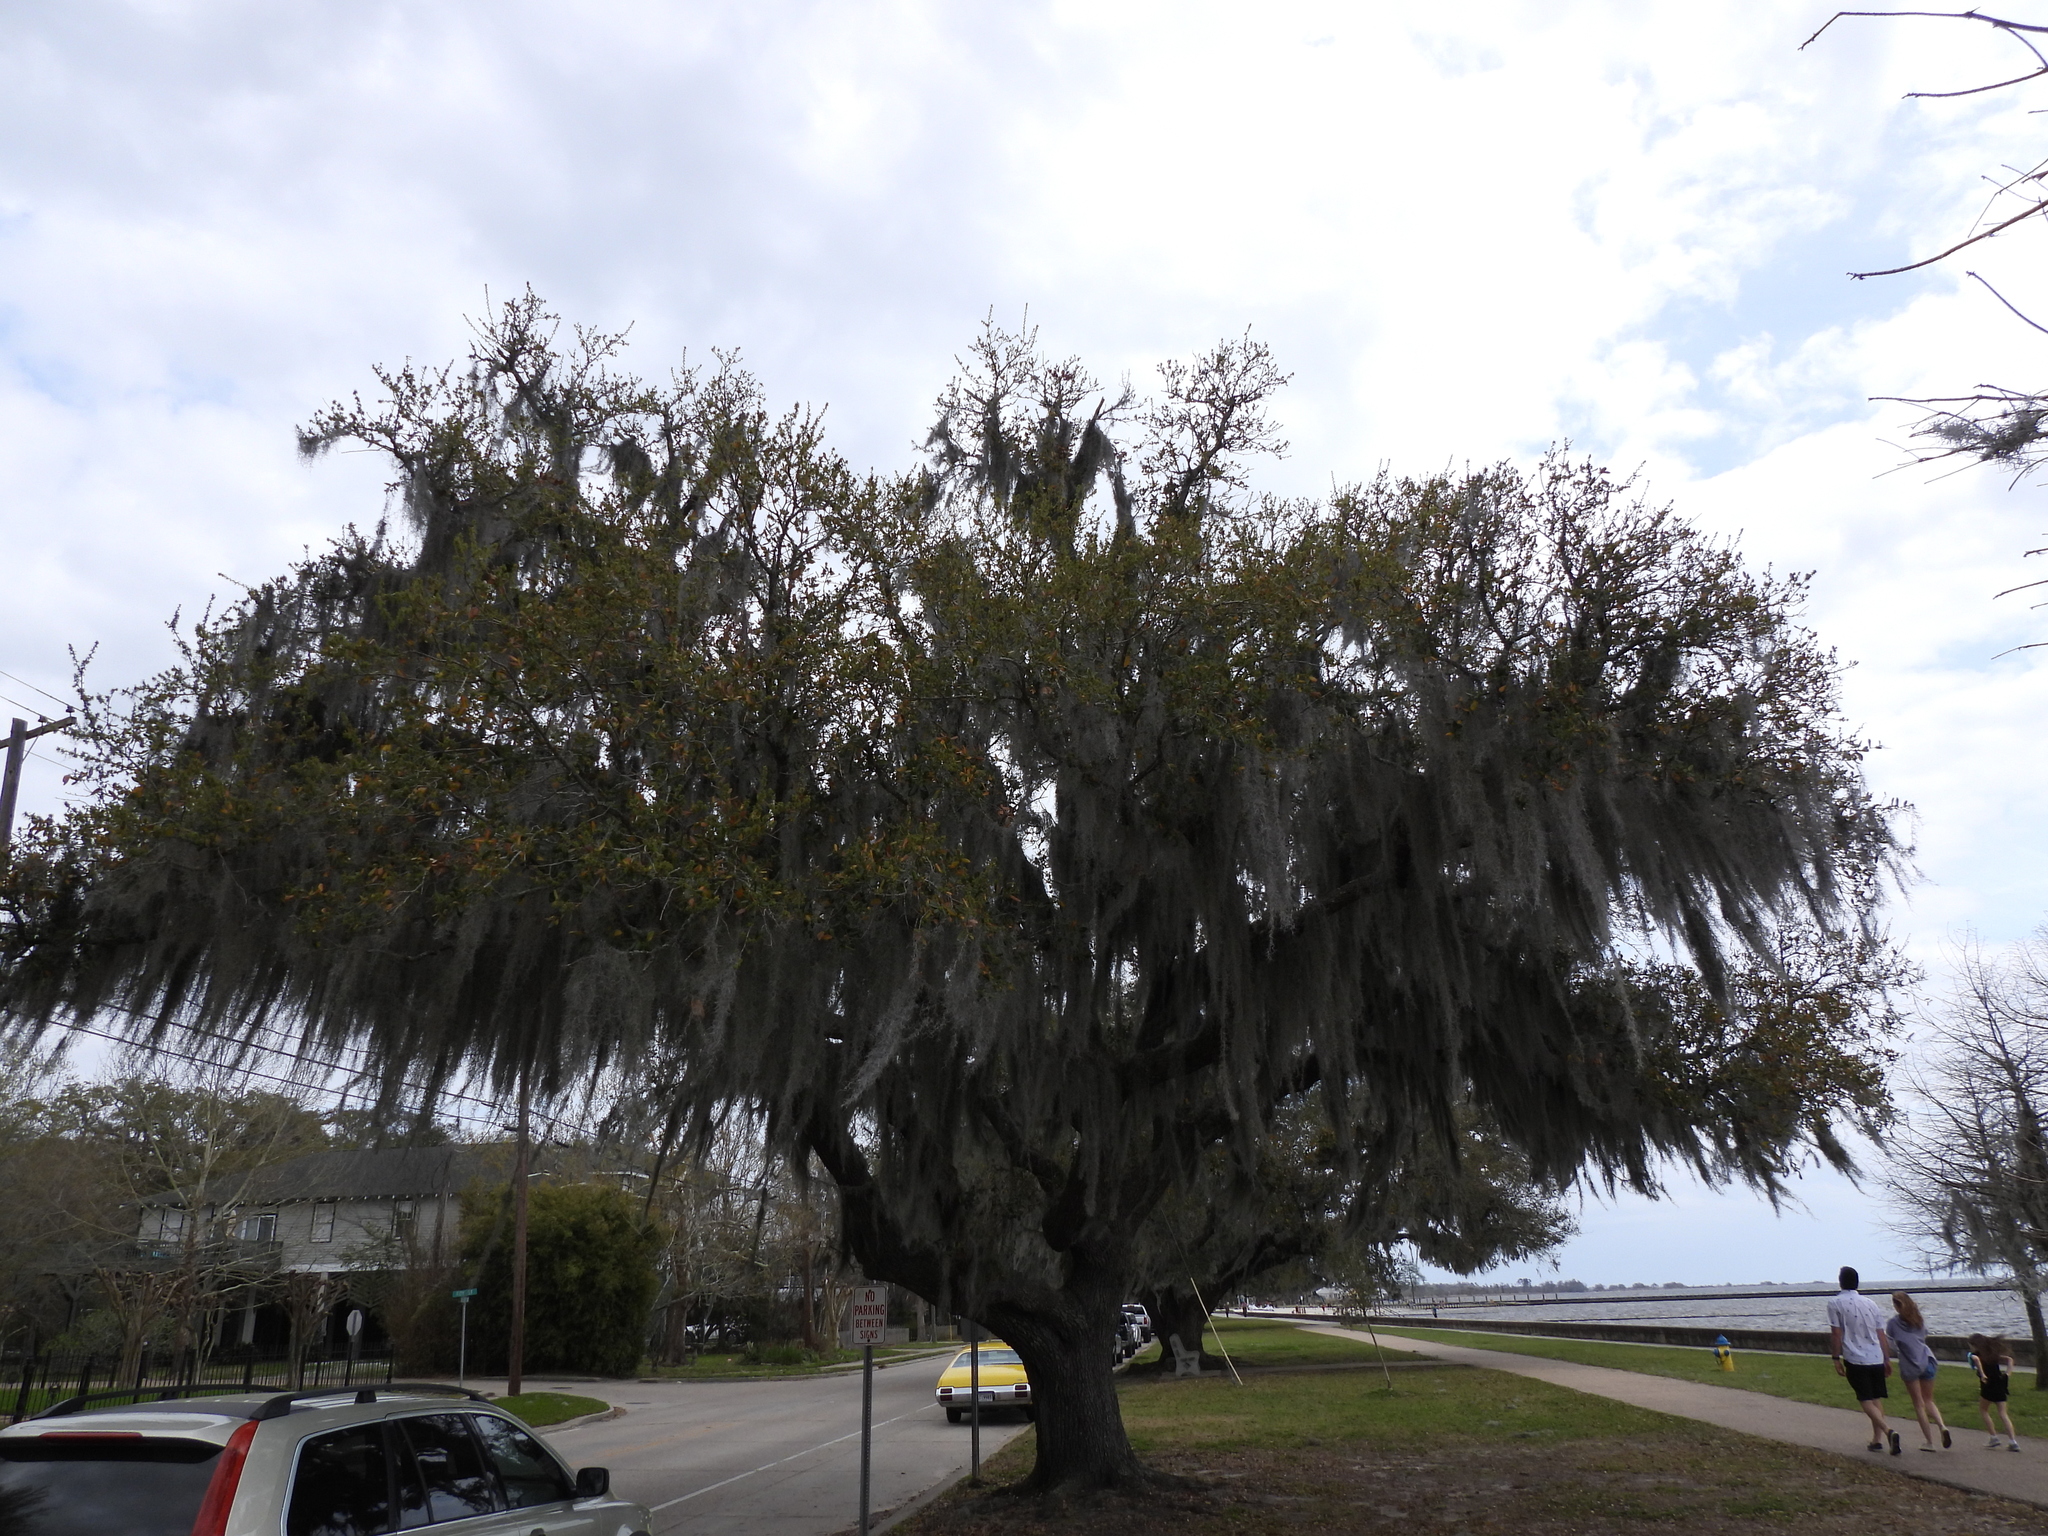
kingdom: Plantae
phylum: Tracheophyta
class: Liliopsida
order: Poales
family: Bromeliaceae
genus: Tillandsia
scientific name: Tillandsia usneoides
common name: Spanish moss
